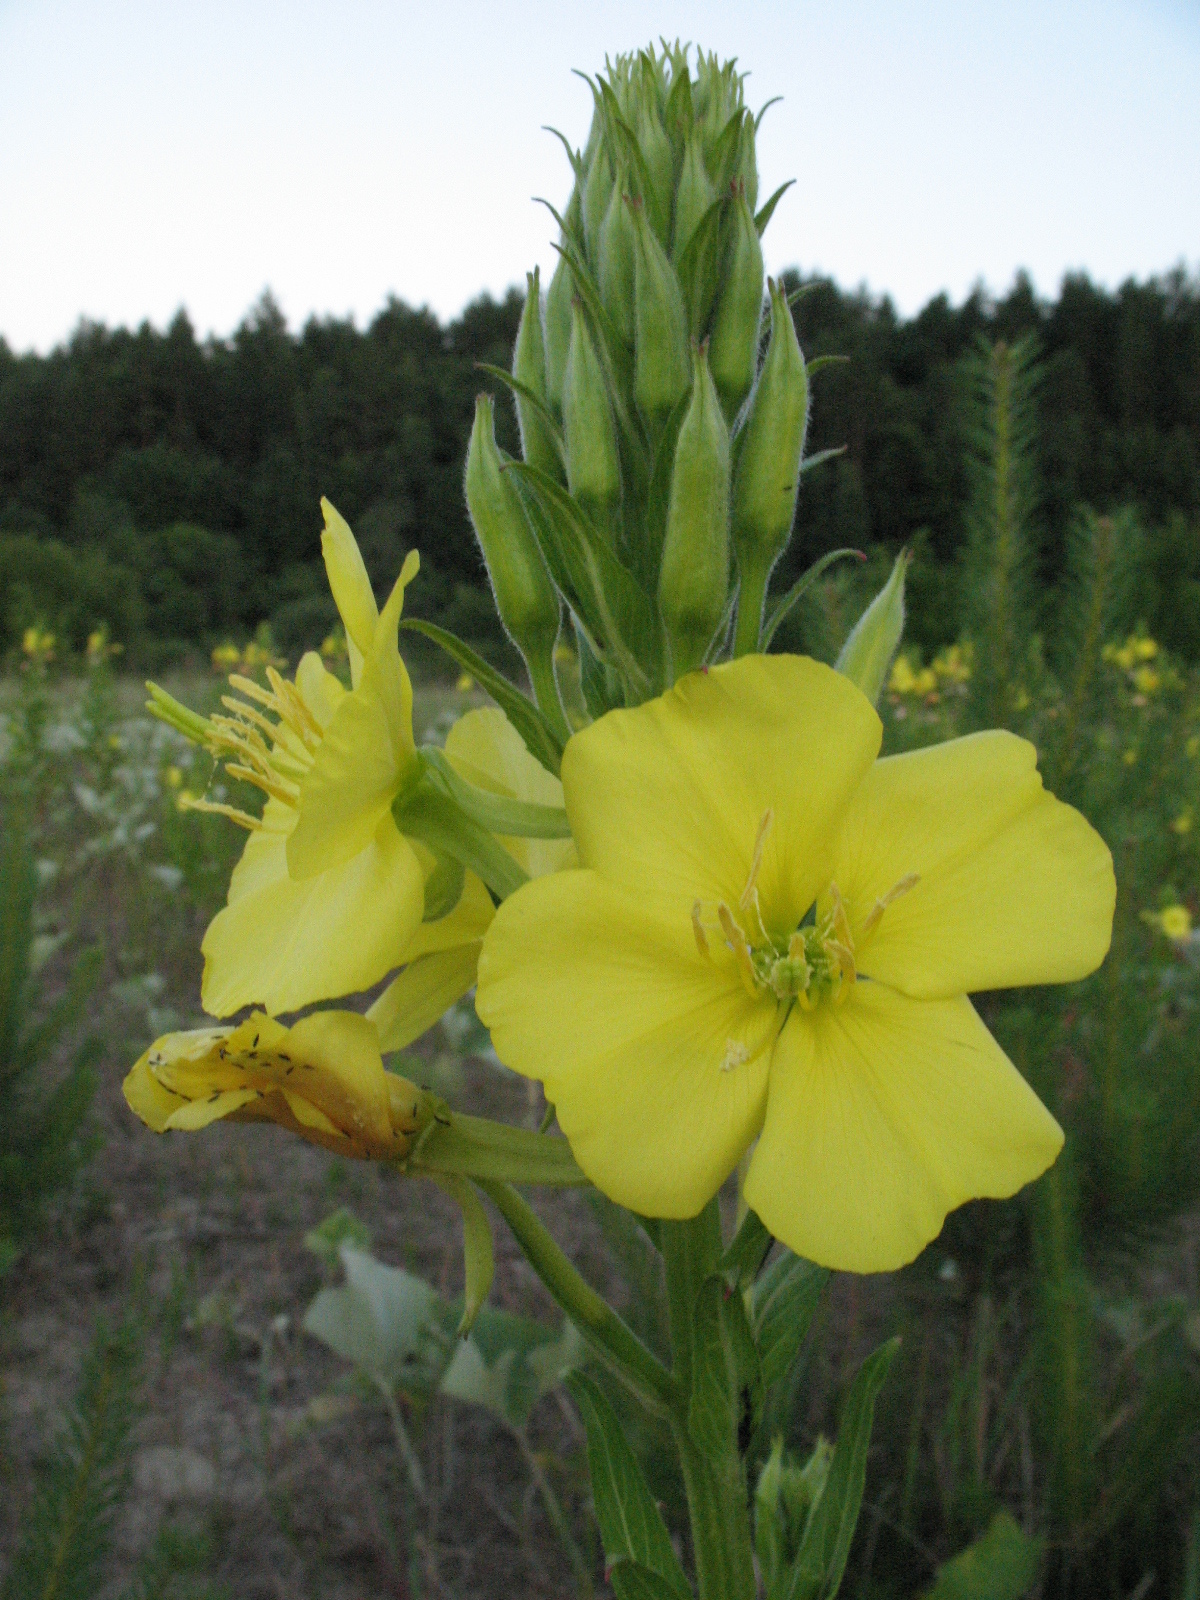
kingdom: Plantae
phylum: Tracheophyta
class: Magnoliopsida
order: Myrtales
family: Onagraceae
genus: Oenothera
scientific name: Oenothera biennis
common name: Common evening-primrose
